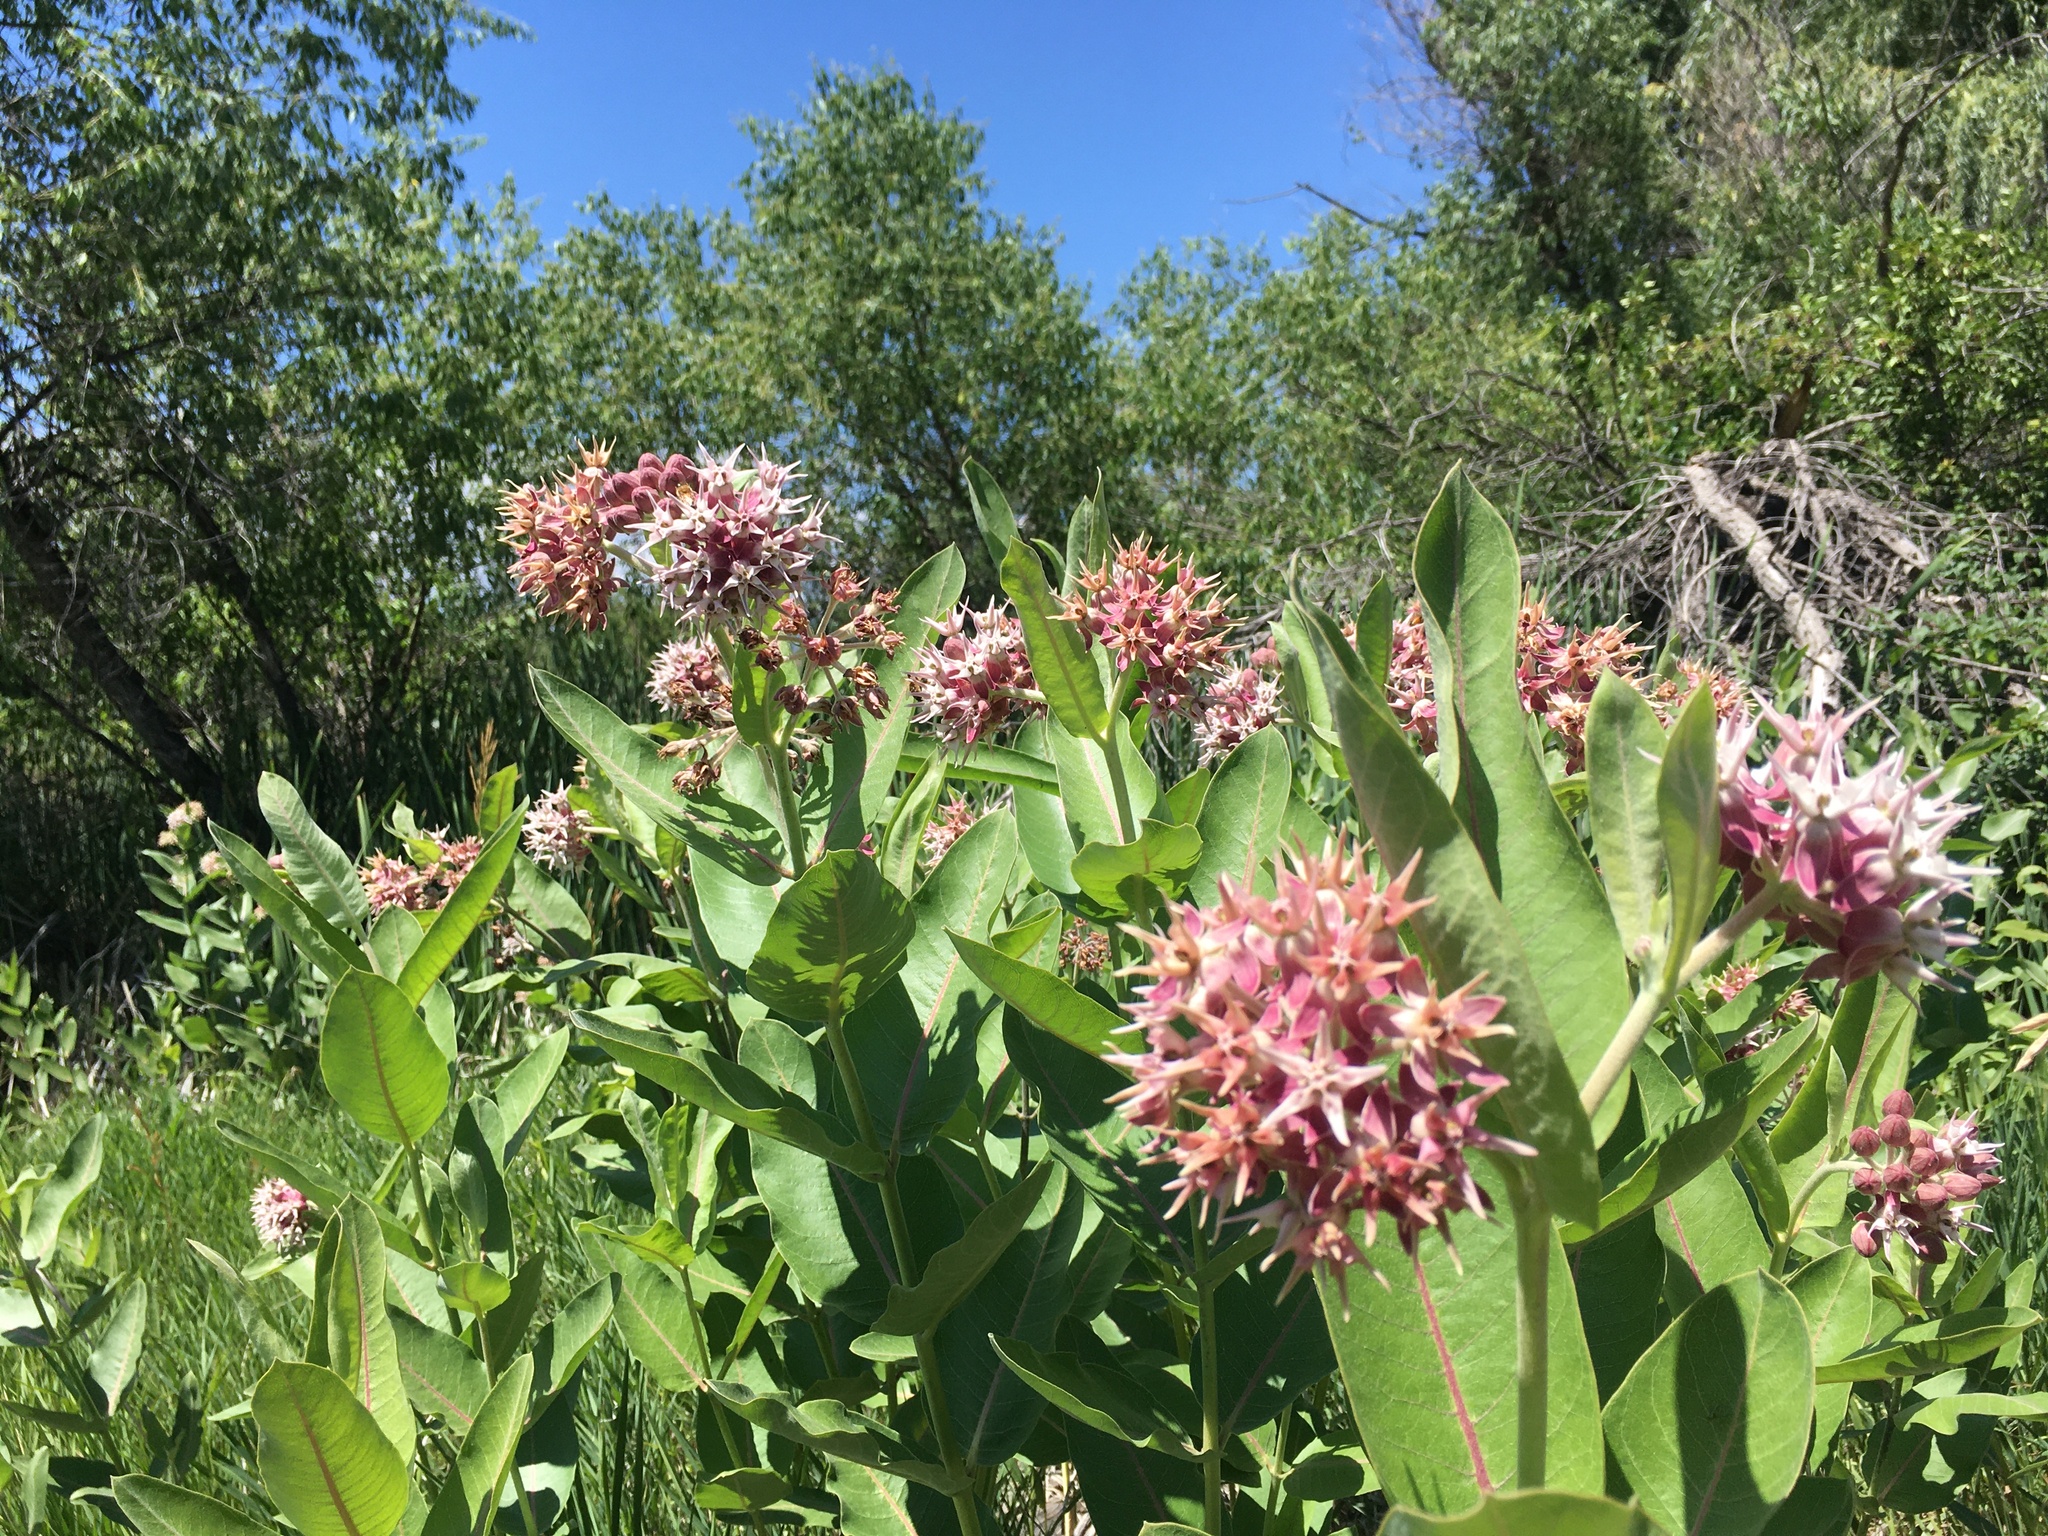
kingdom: Plantae
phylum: Tracheophyta
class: Magnoliopsida
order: Gentianales
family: Apocynaceae
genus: Asclepias
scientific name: Asclepias speciosa
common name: Showy milkweed
